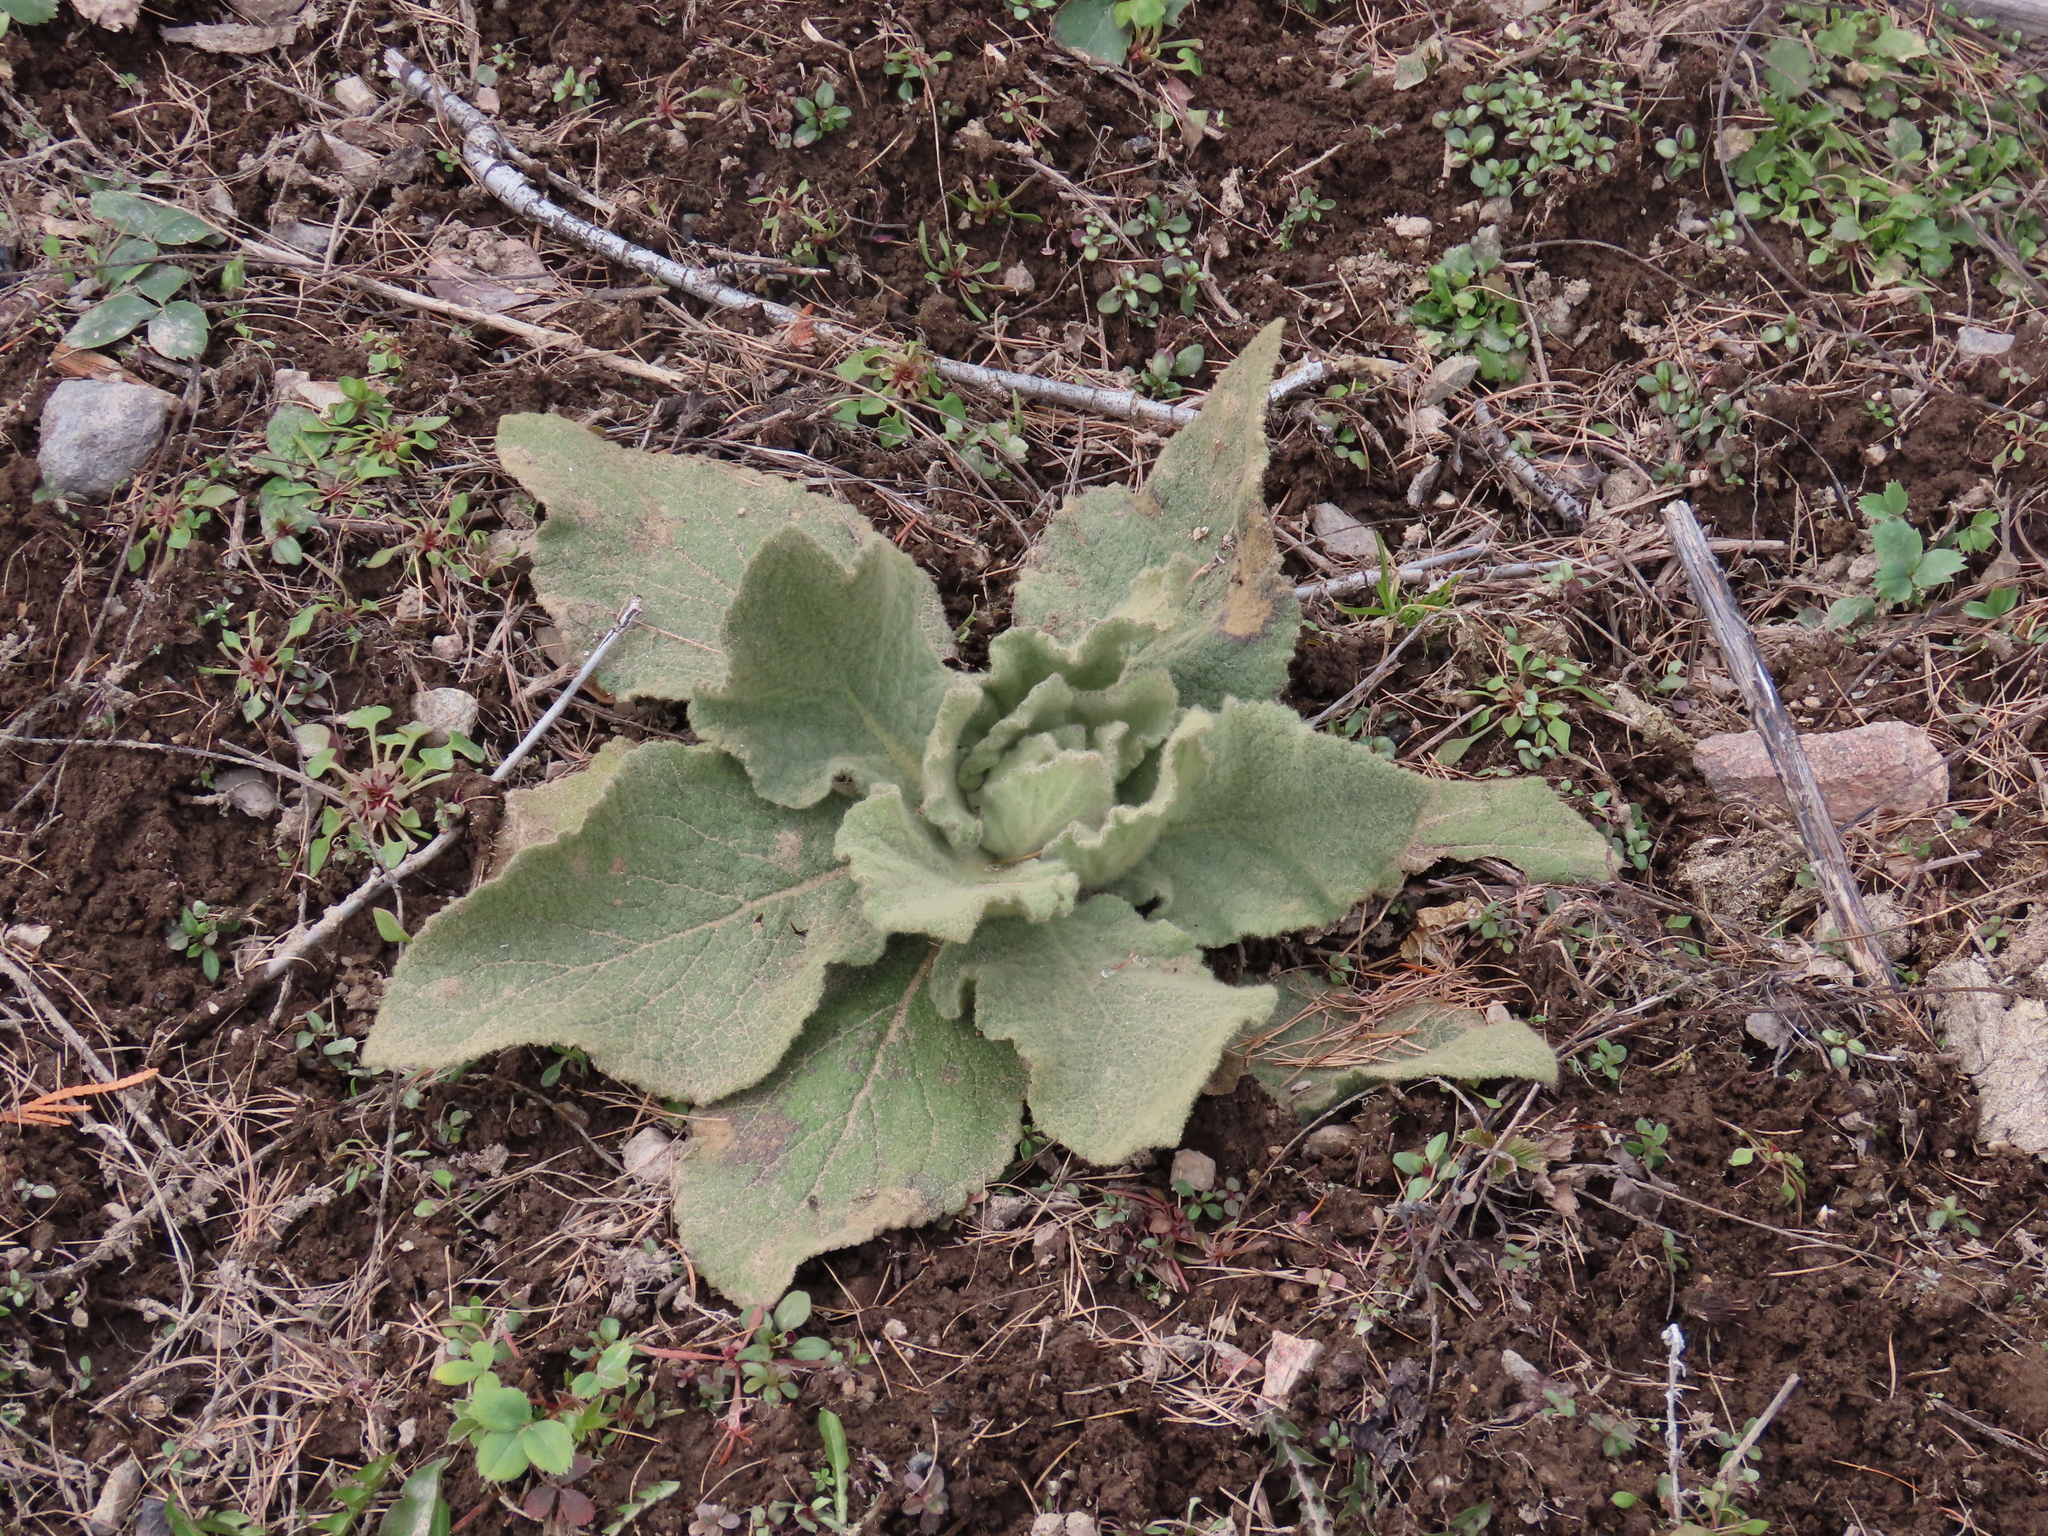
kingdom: Plantae
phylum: Tracheophyta
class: Magnoliopsida
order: Lamiales
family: Scrophulariaceae
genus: Verbascum
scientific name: Verbascum thapsus
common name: Common mullein
